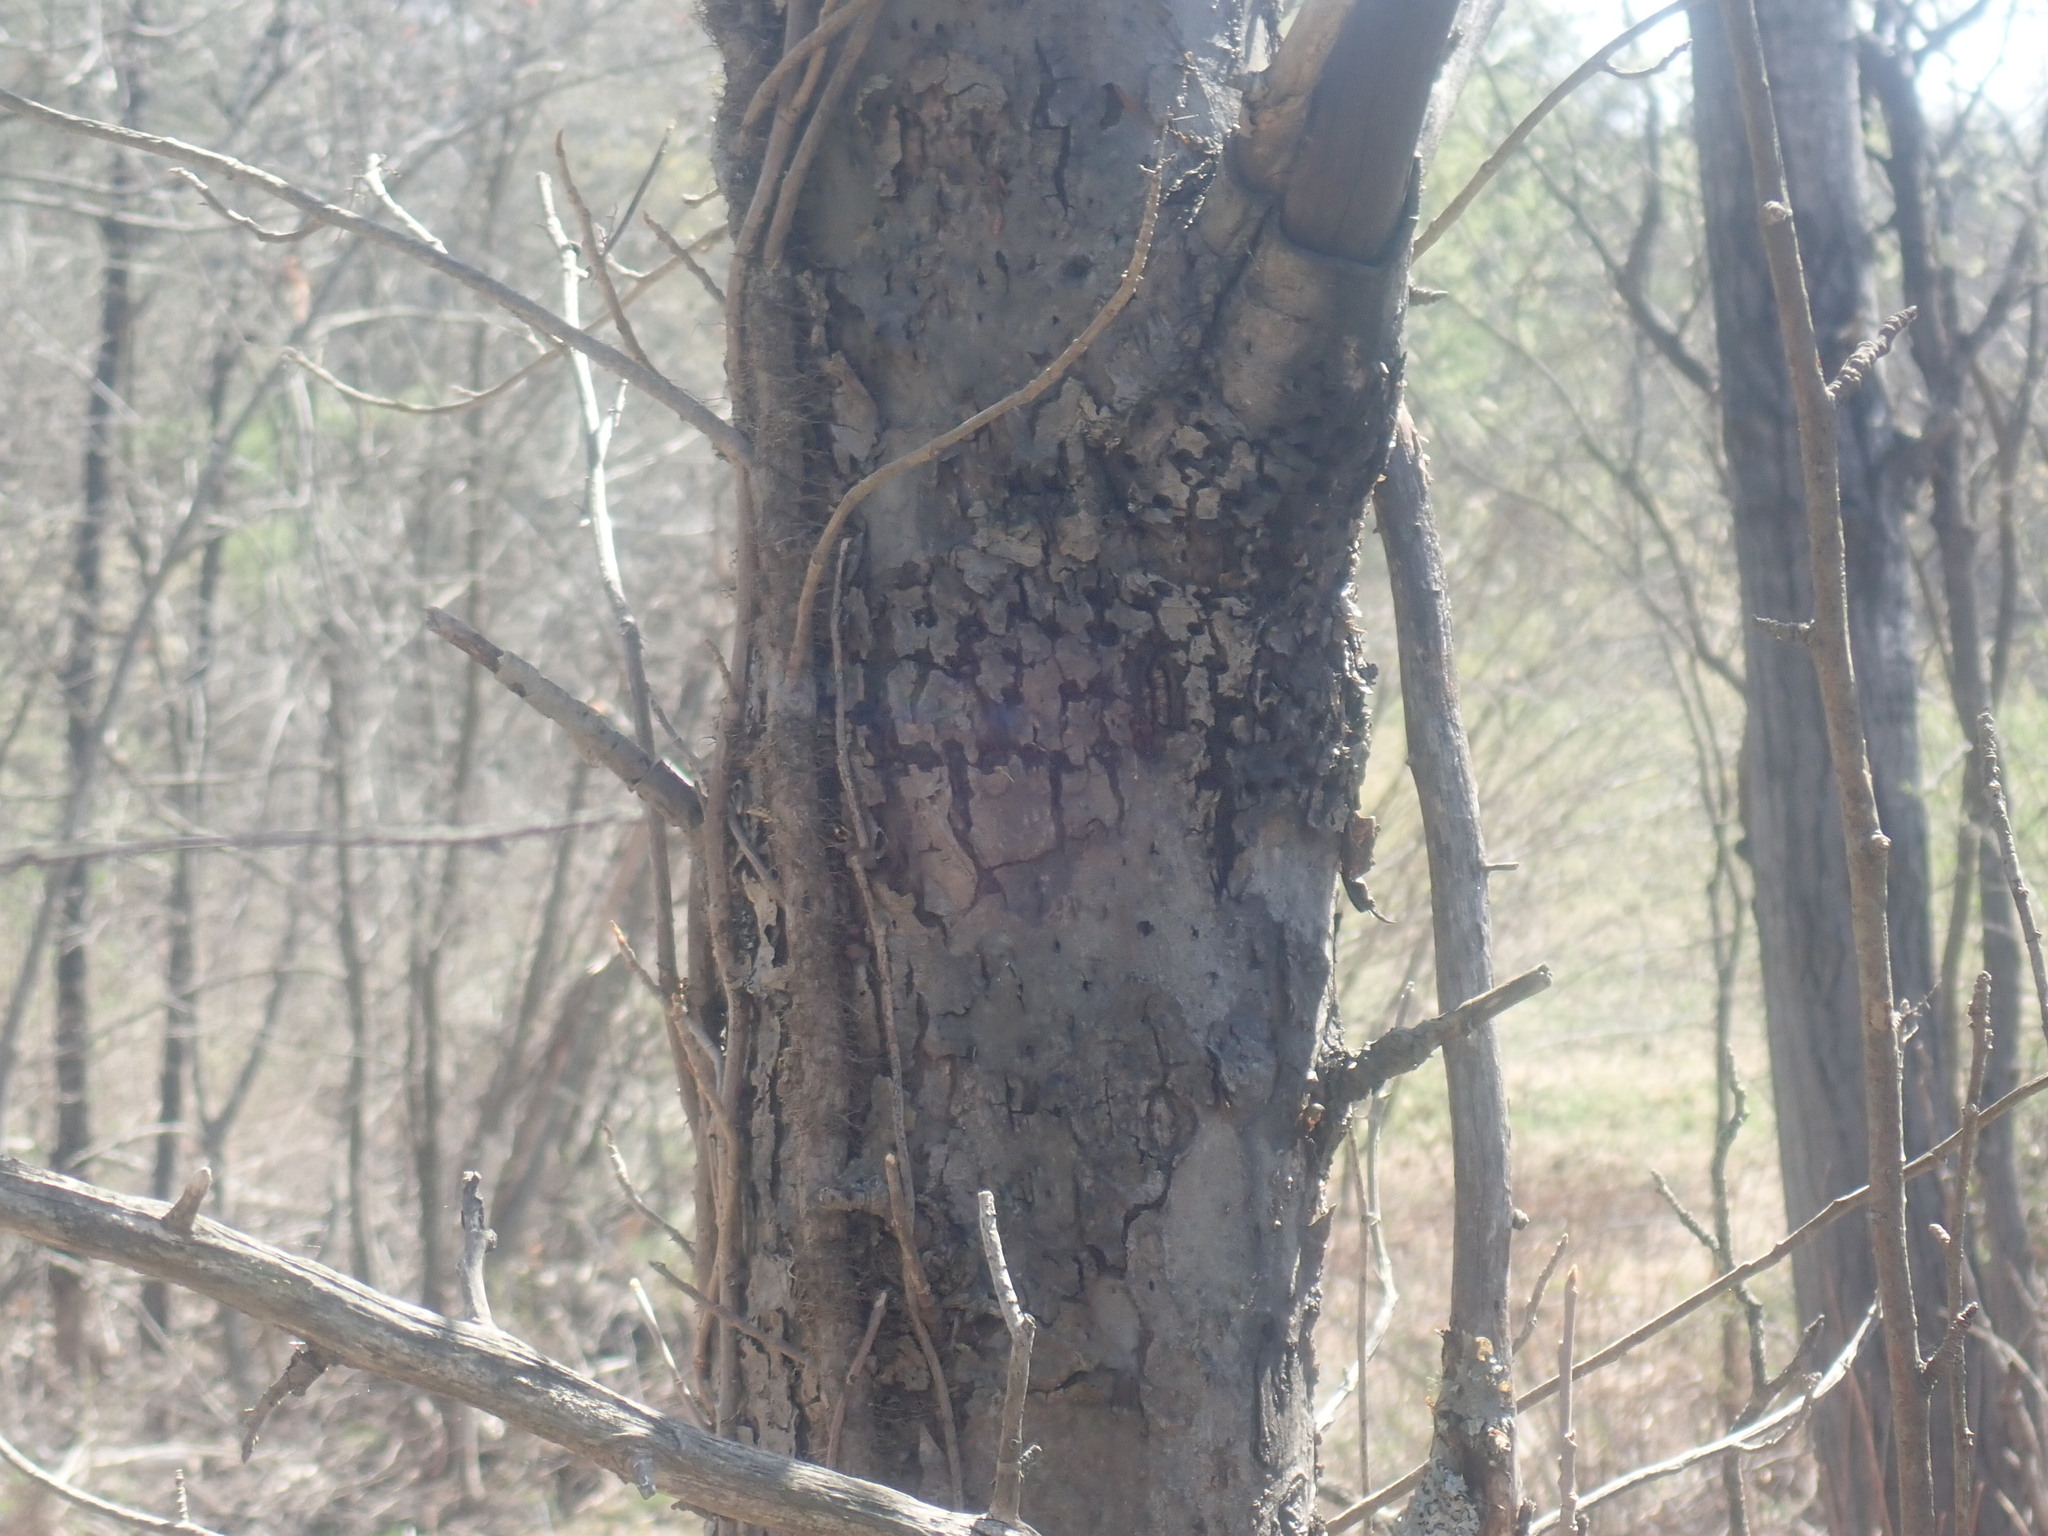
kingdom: Animalia
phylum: Chordata
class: Aves
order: Piciformes
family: Picidae
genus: Sphyrapicus
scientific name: Sphyrapicus varius
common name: Yellow-bellied sapsucker
